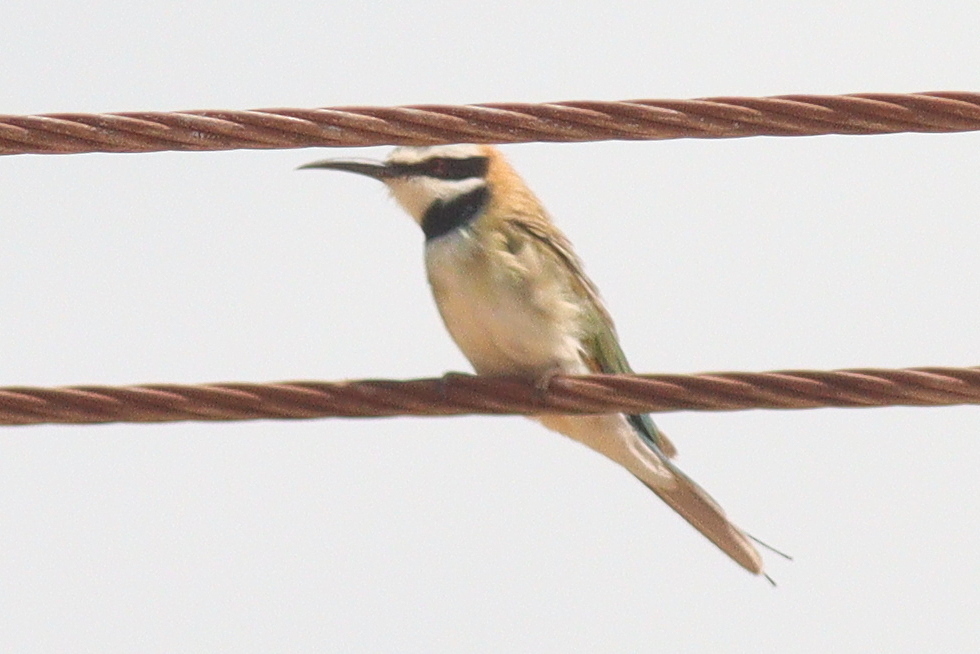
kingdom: Animalia
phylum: Chordata
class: Aves
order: Coraciiformes
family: Meropidae
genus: Merops
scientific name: Merops albicollis
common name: White-throated bee-eater
